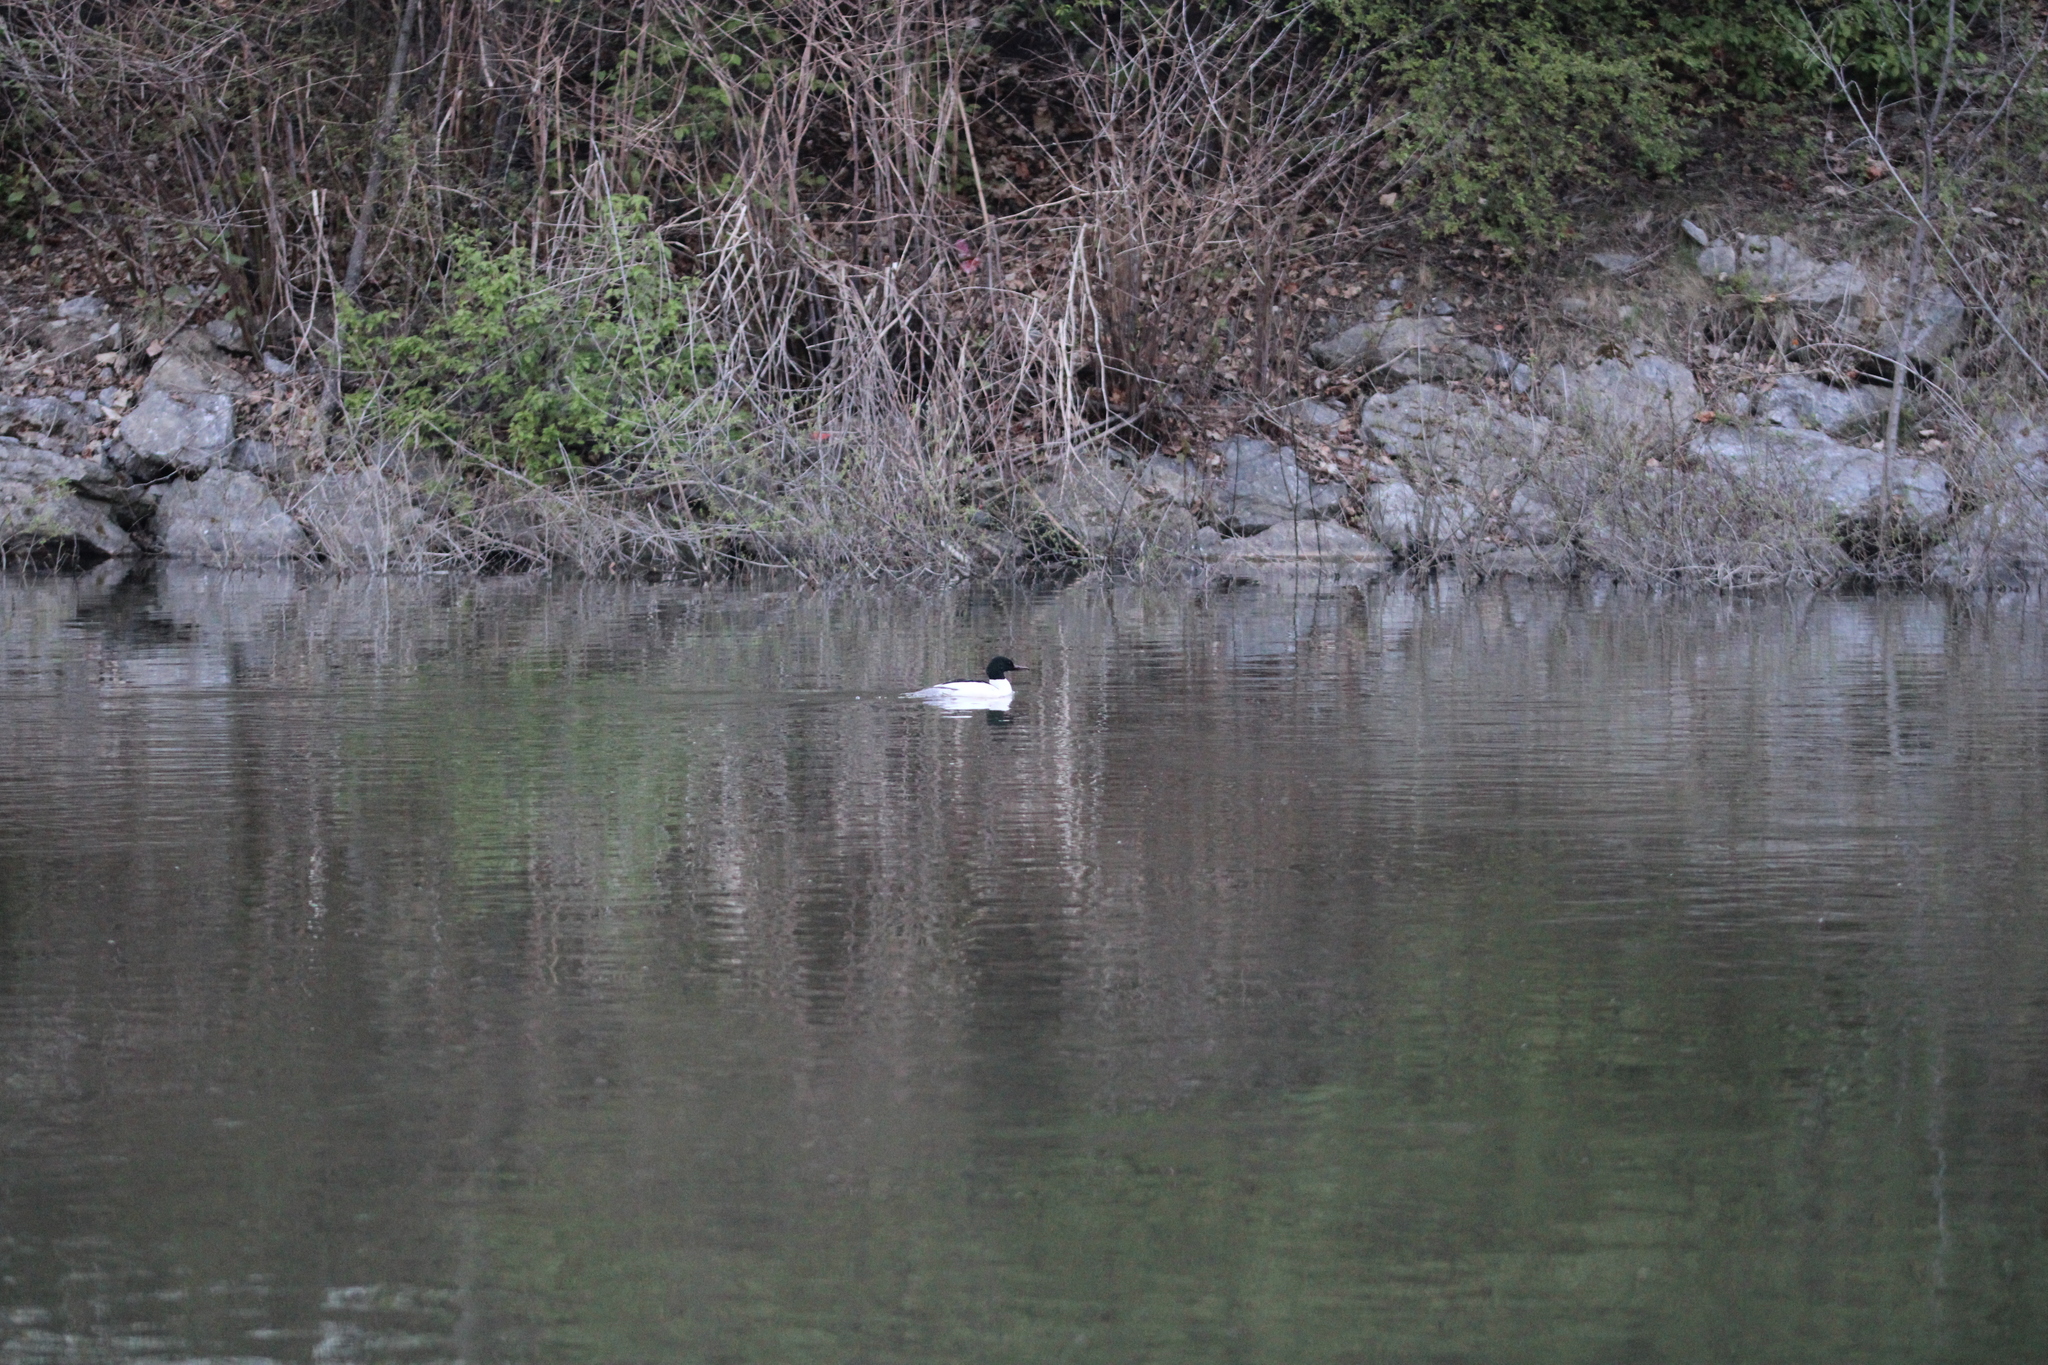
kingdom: Animalia
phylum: Chordata
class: Aves
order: Anseriformes
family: Anatidae
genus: Mergus
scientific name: Mergus merganser
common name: Common merganser
